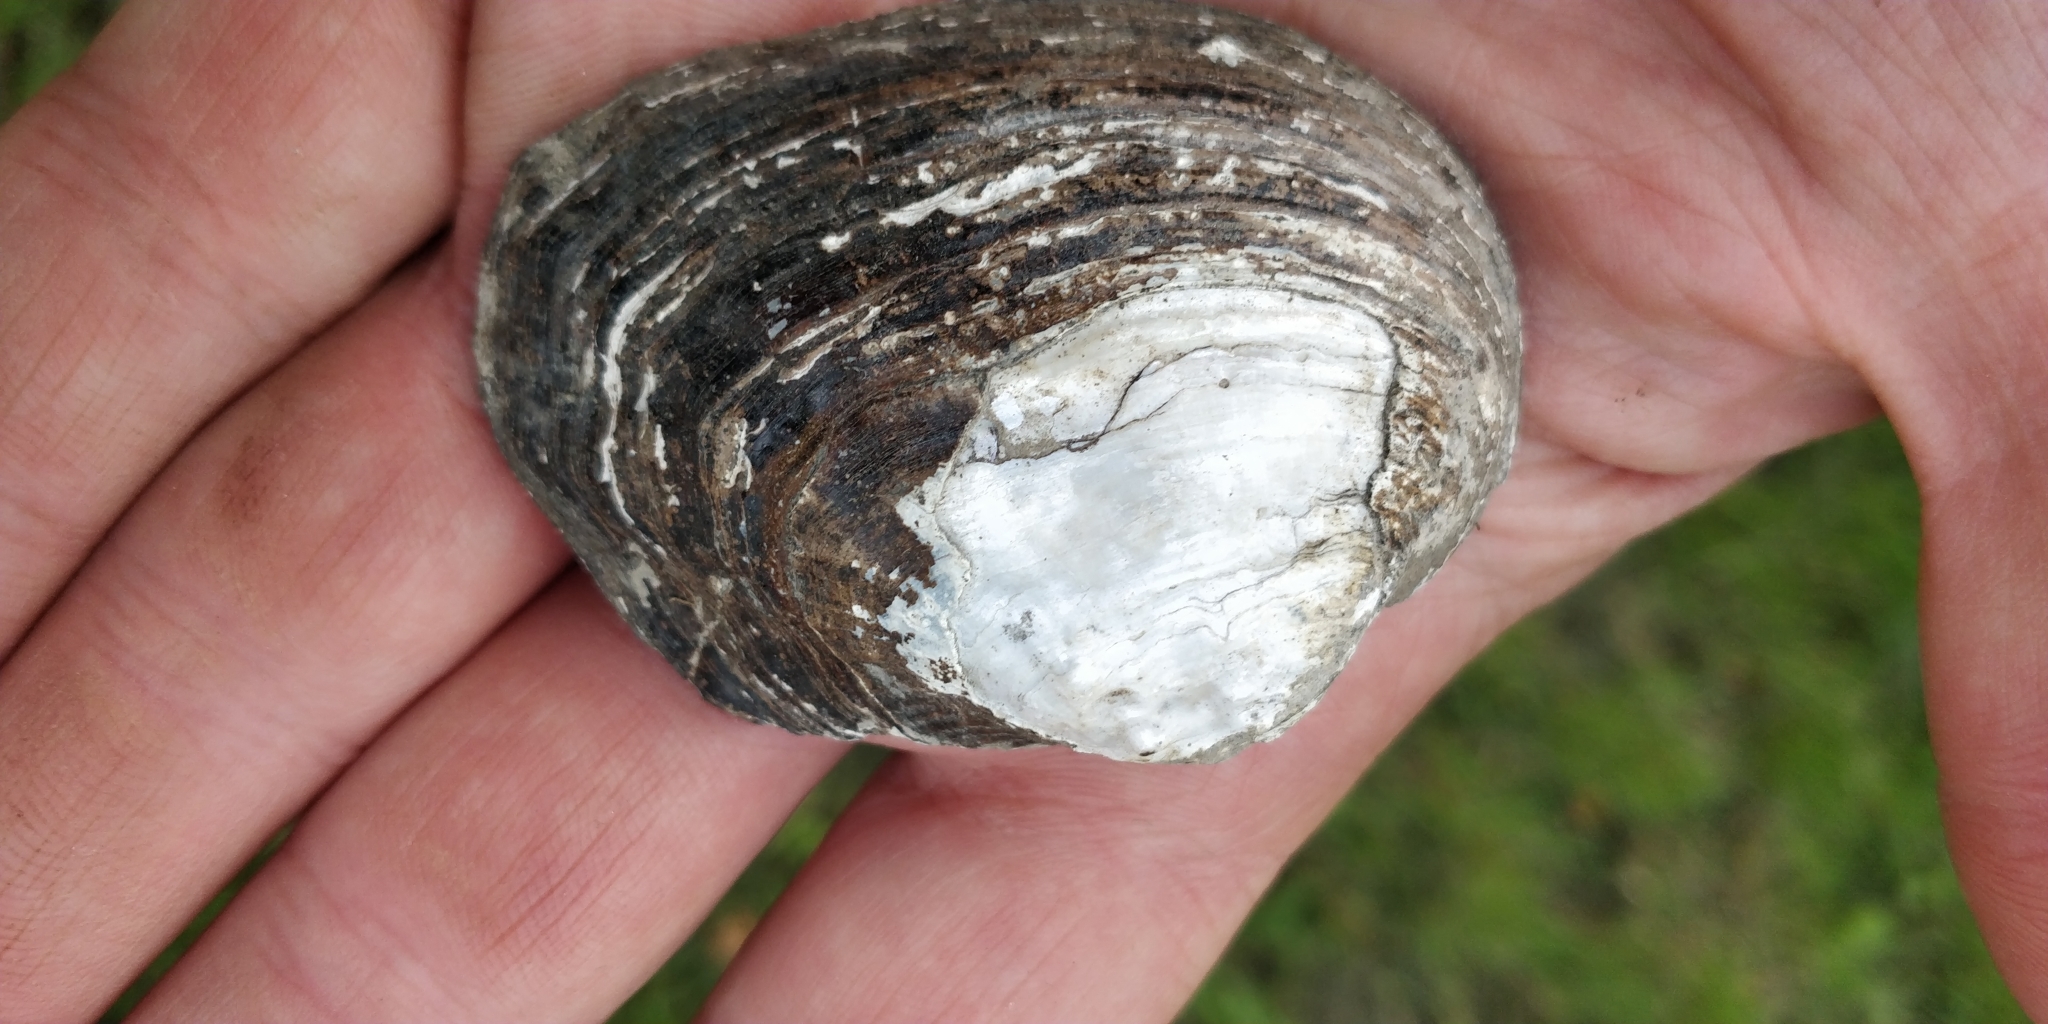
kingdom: Animalia
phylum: Mollusca
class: Bivalvia
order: Unionida
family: Unionidae
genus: Arcidens
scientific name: Arcidens confragosus
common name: Rock pocketbook
